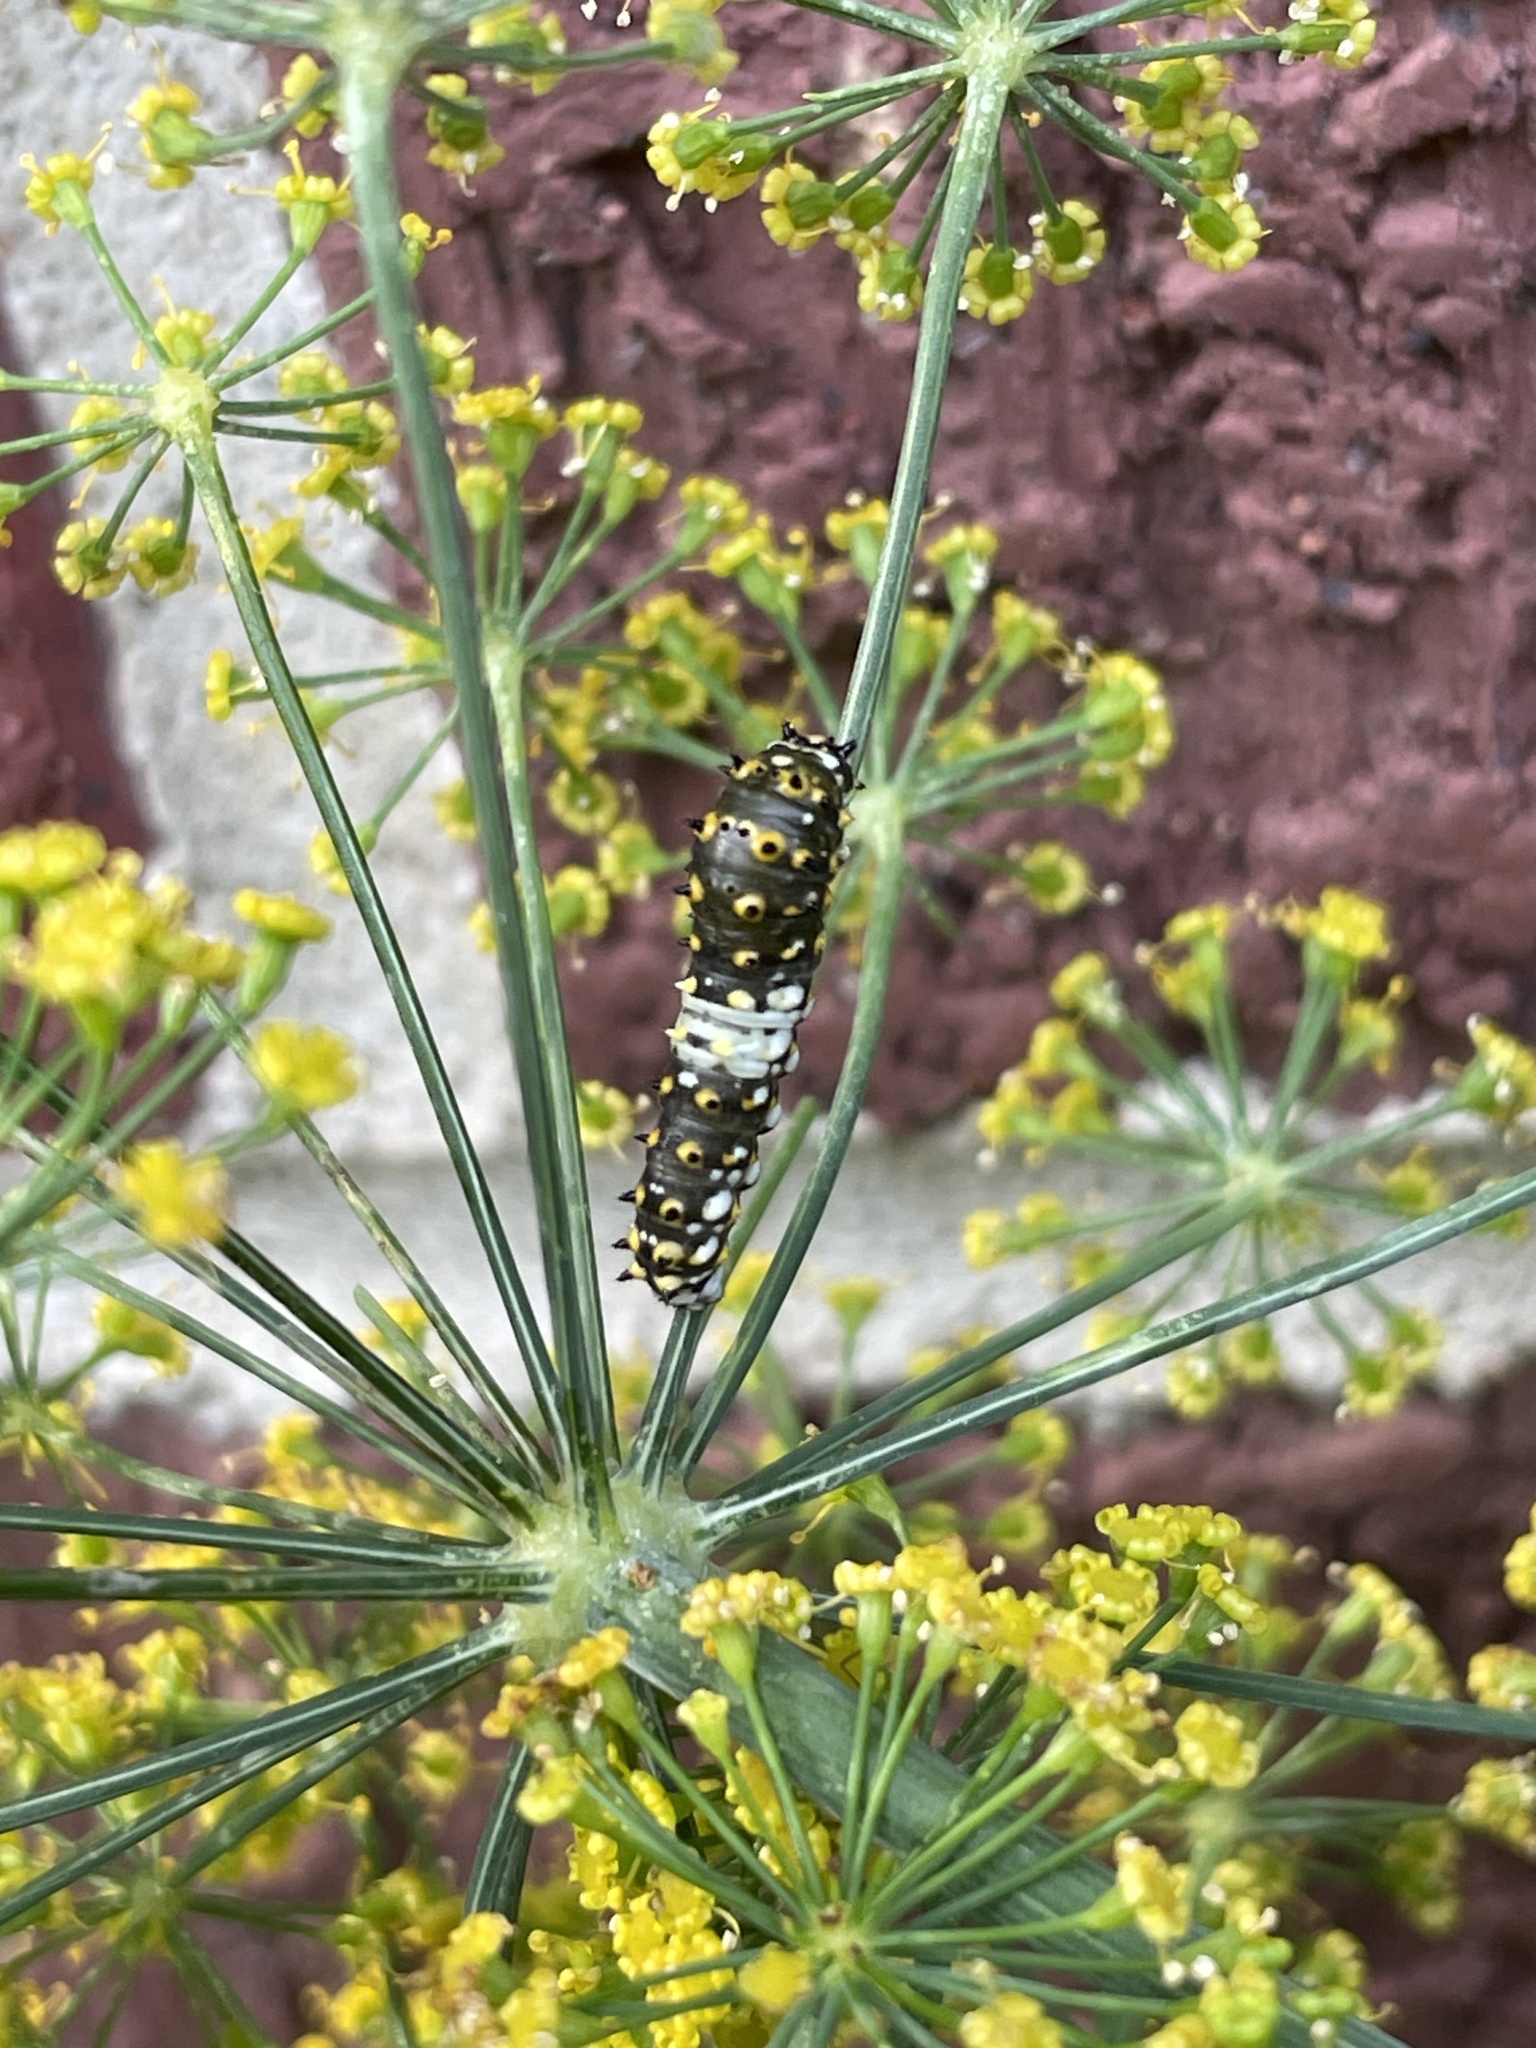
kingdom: Animalia
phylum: Arthropoda
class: Insecta
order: Lepidoptera
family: Papilionidae
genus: Papilio
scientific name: Papilio polyxenes
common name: Black swallowtail
